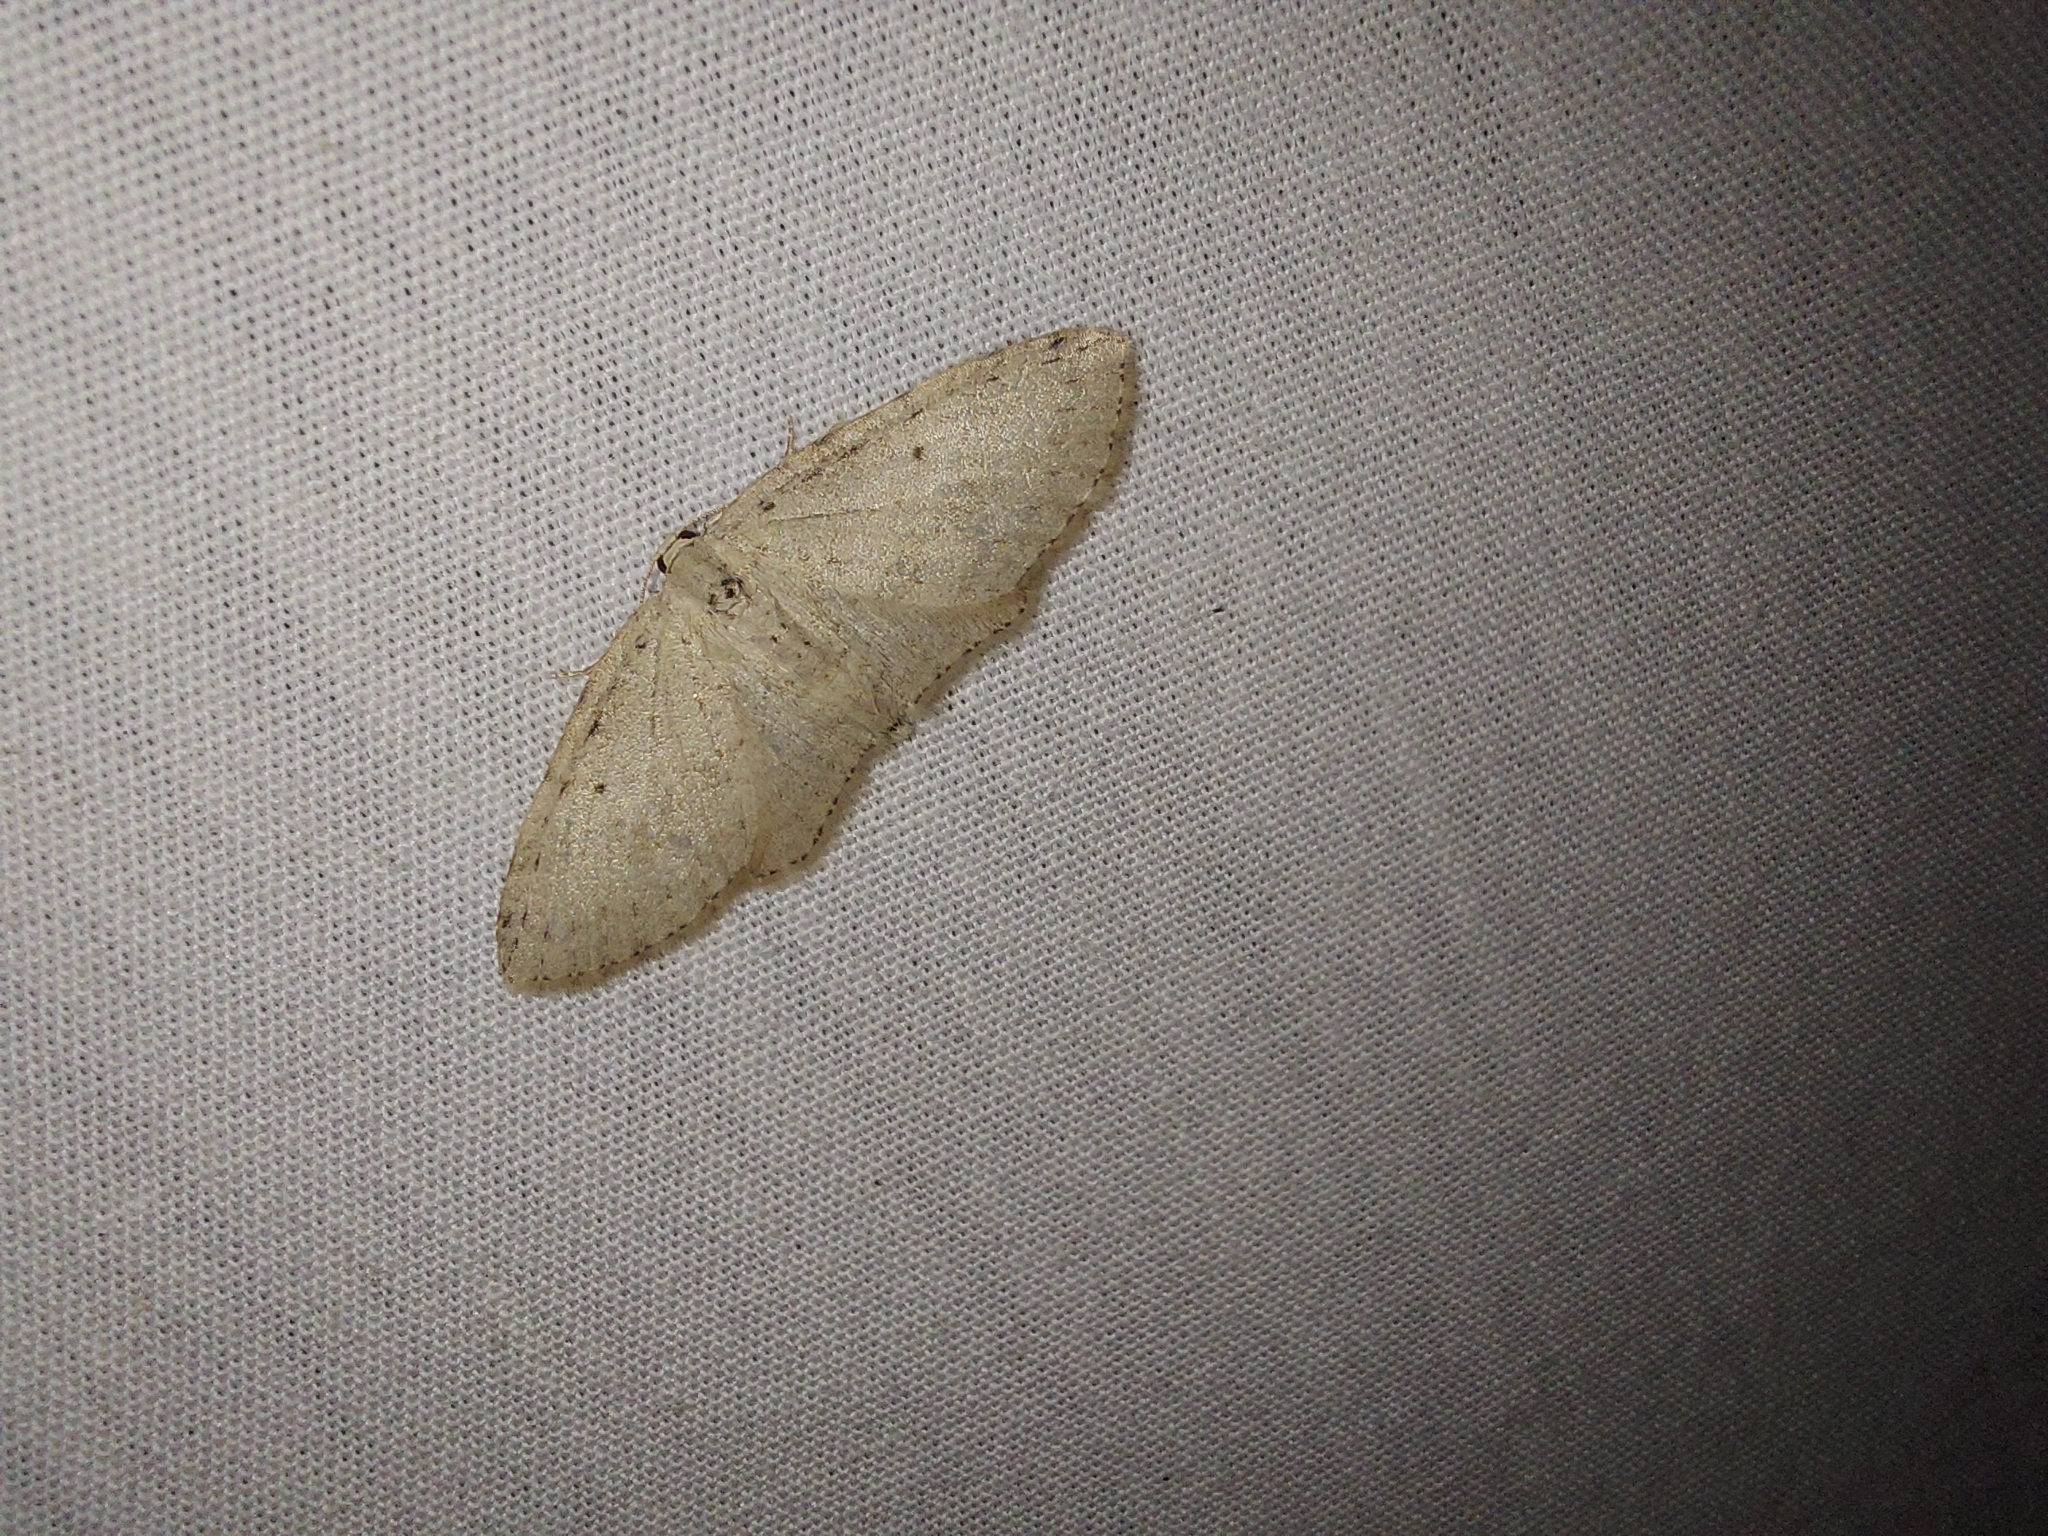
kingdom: Animalia
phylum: Arthropoda
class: Insecta
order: Lepidoptera
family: Geometridae
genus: Poecilasthena
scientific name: Poecilasthena anthodes
